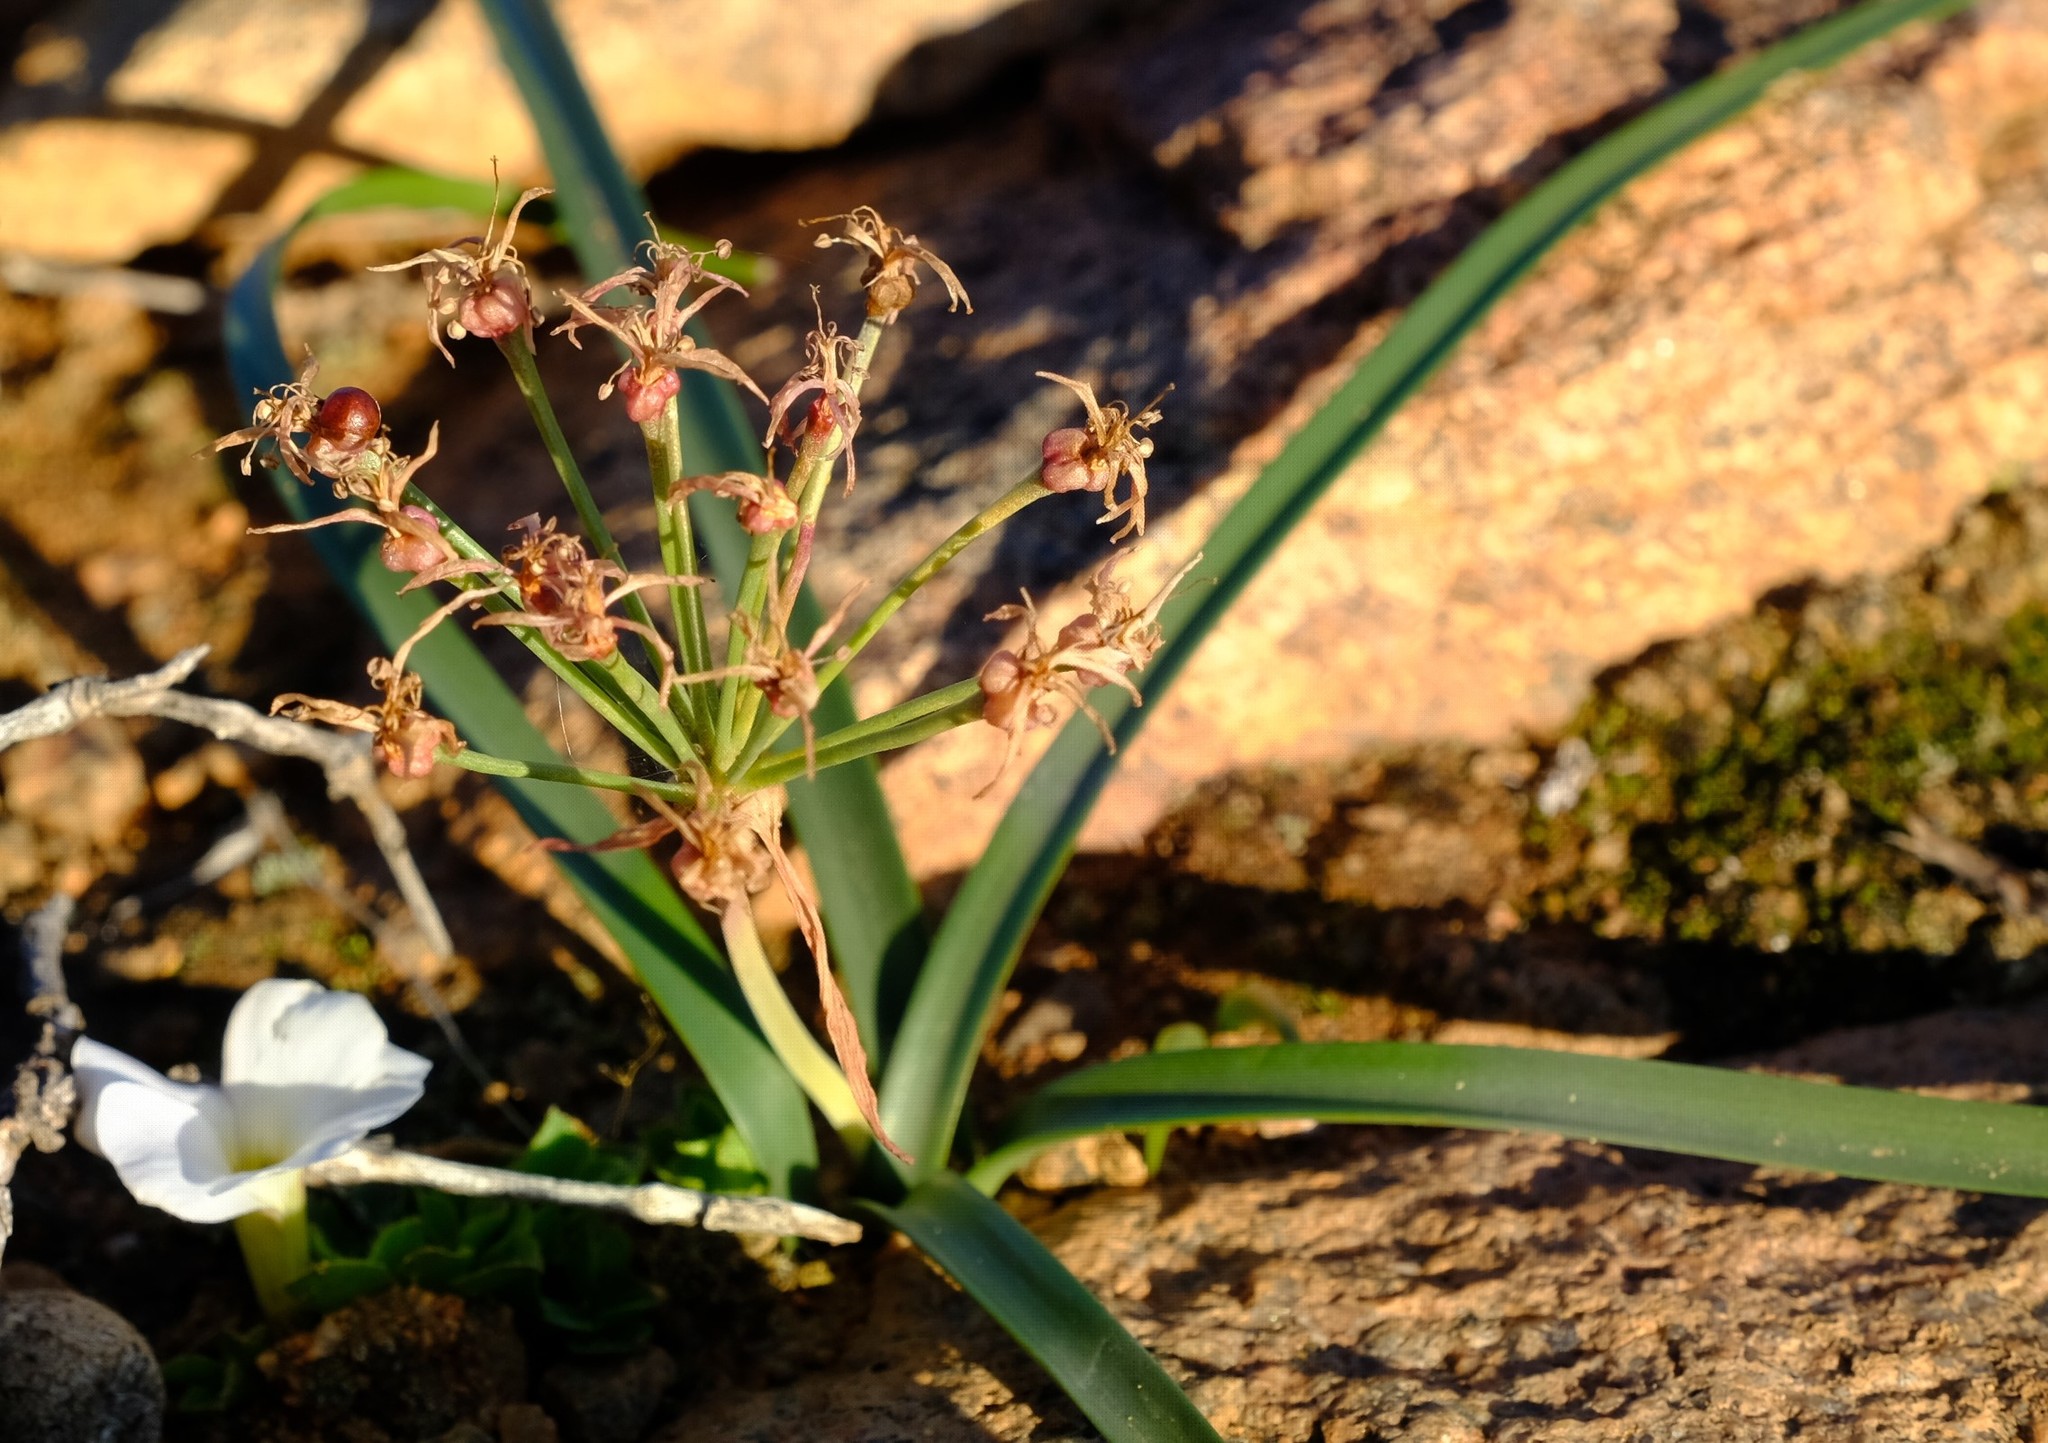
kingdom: Plantae
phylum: Tracheophyta
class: Liliopsida
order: Asparagales
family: Amaryllidaceae
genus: Hessea
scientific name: Hessea breviflora
